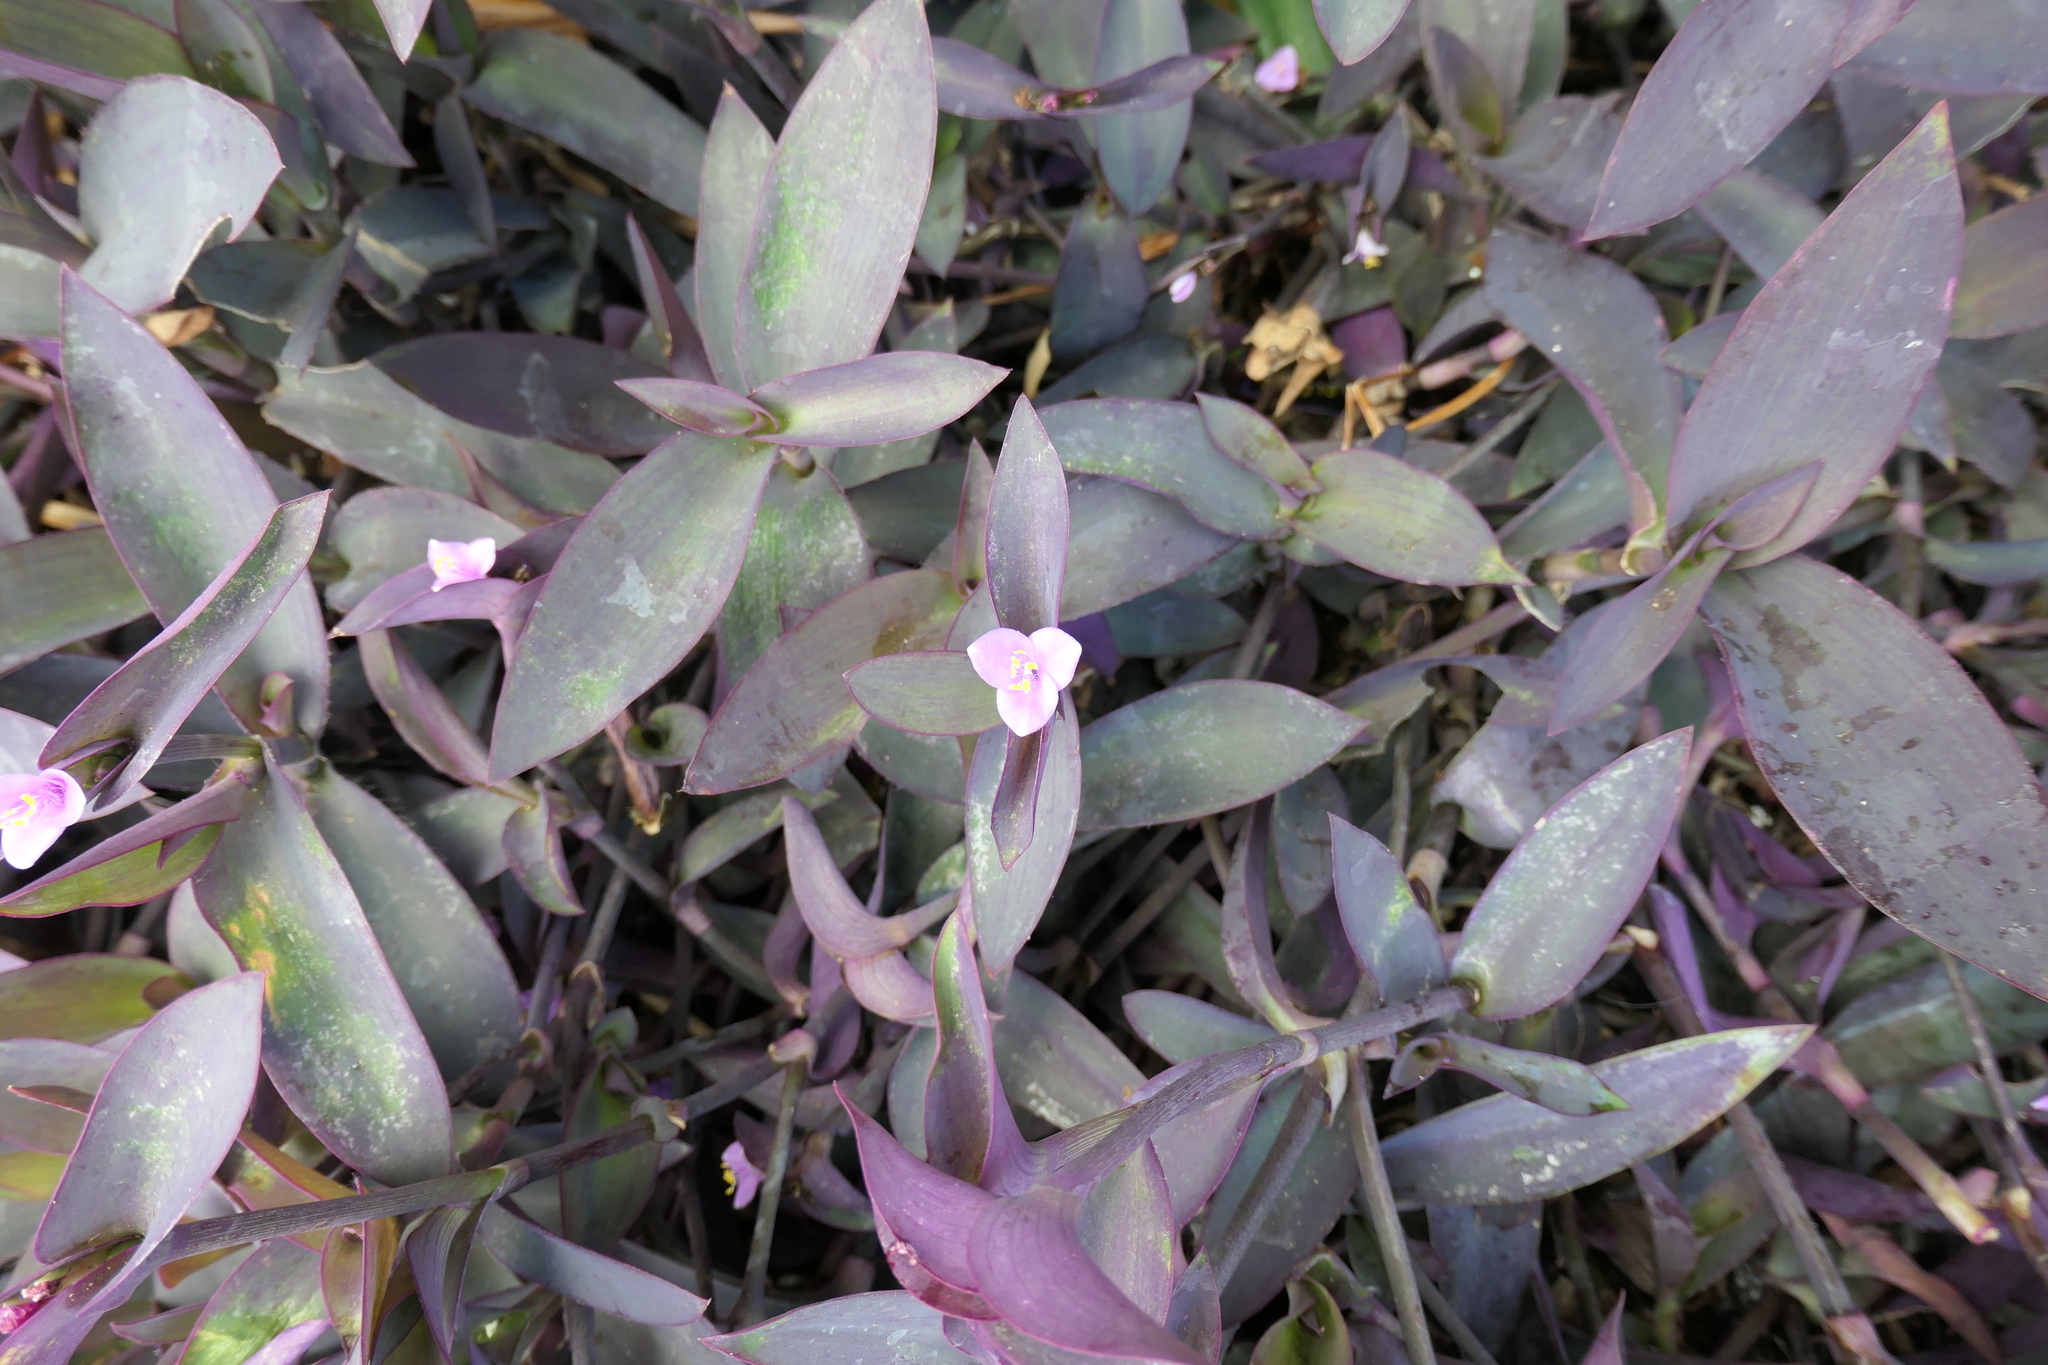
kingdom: Plantae
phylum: Tracheophyta
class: Liliopsida
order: Commelinales
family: Commelinaceae
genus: Tradescantia
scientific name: Tradescantia pallida
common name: Purpleheart
